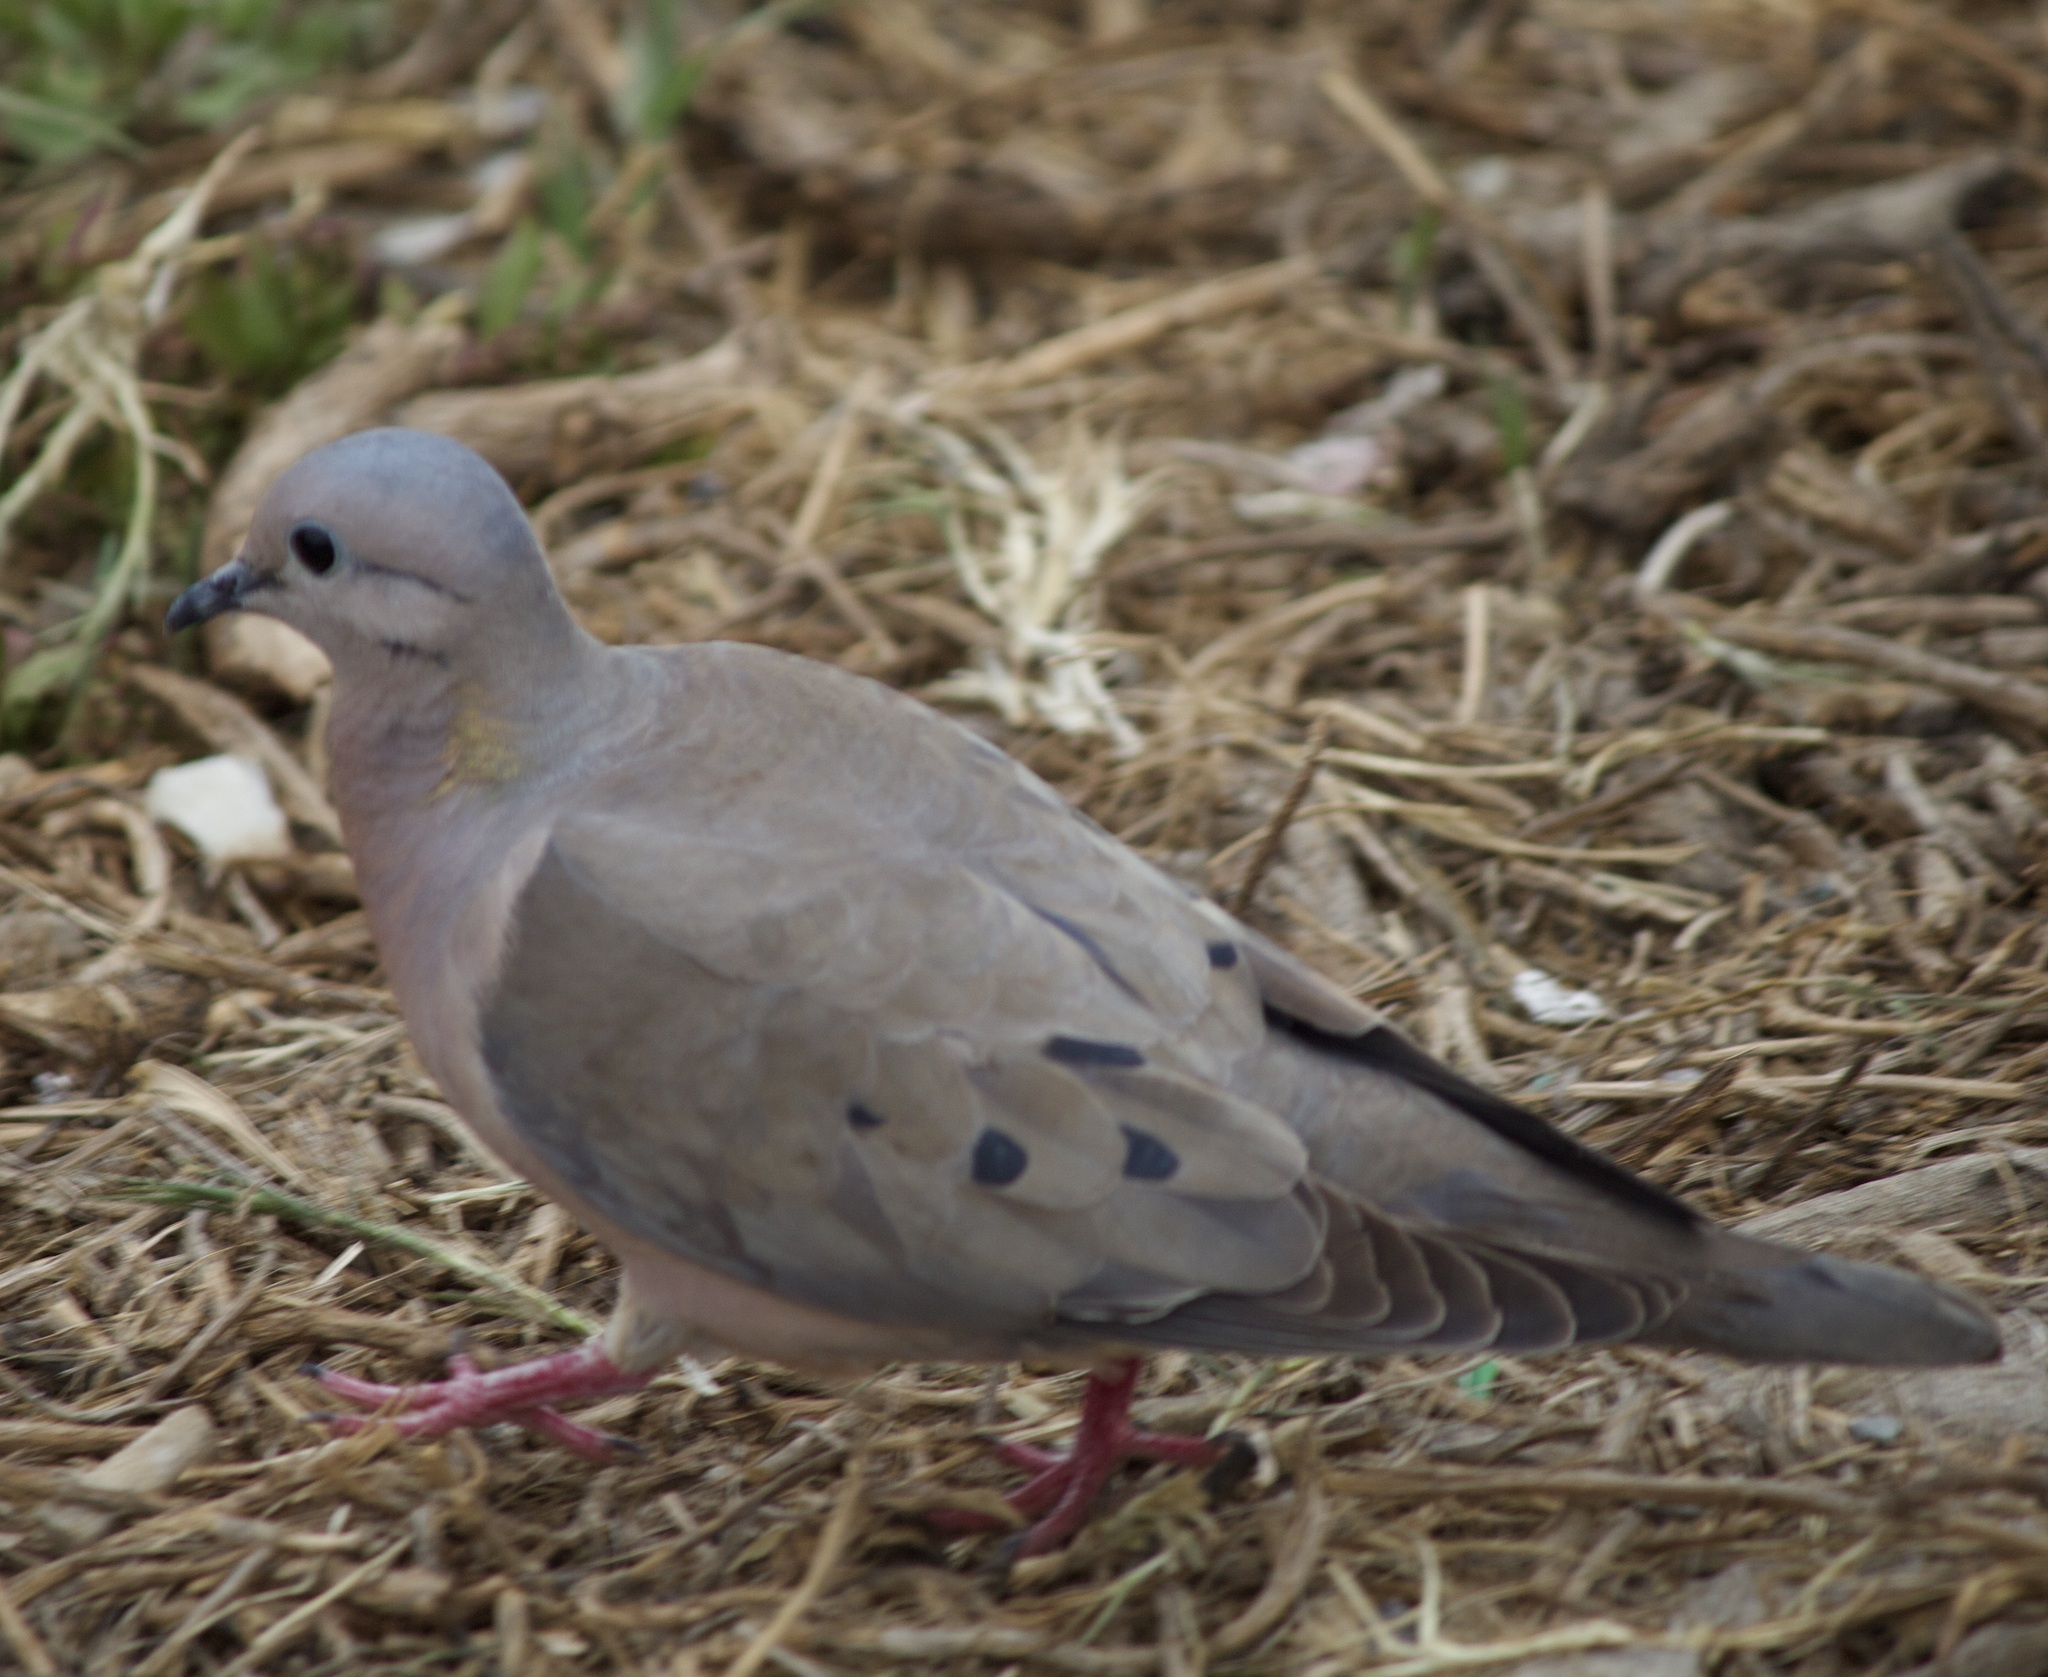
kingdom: Animalia
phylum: Chordata
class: Aves
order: Columbiformes
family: Columbidae
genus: Zenaida
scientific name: Zenaida auriculata
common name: Eared dove
